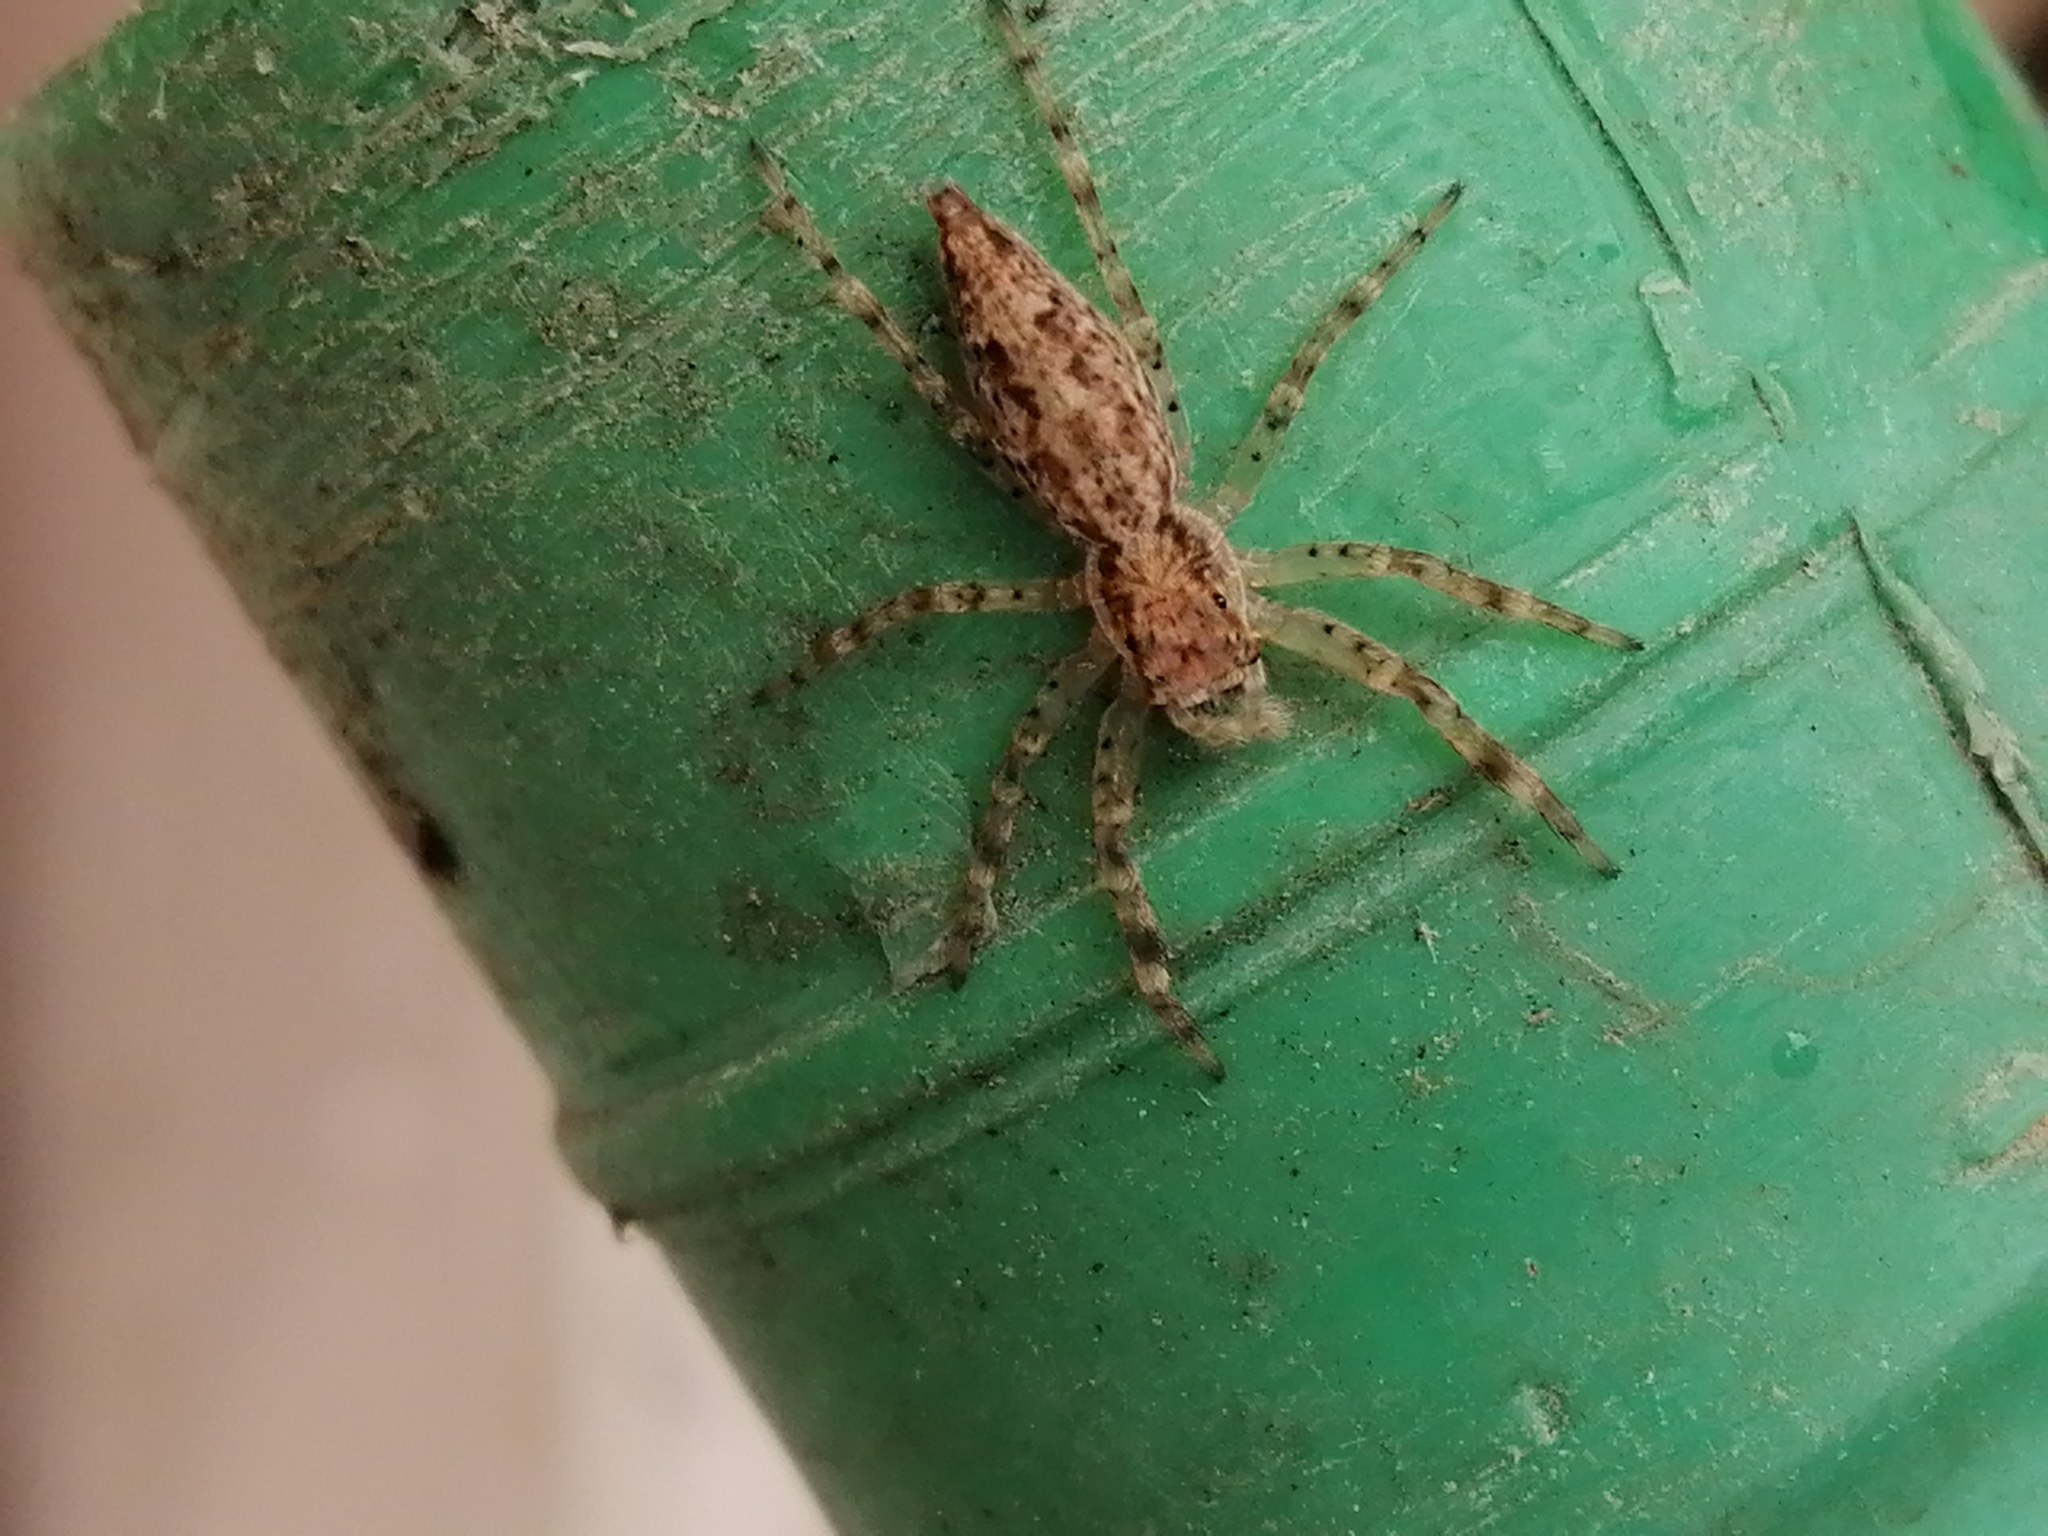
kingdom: Animalia
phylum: Arthropoda
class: Arachnida
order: Araneae
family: Salticidae
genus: Helpis
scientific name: Helpis minitabunda
